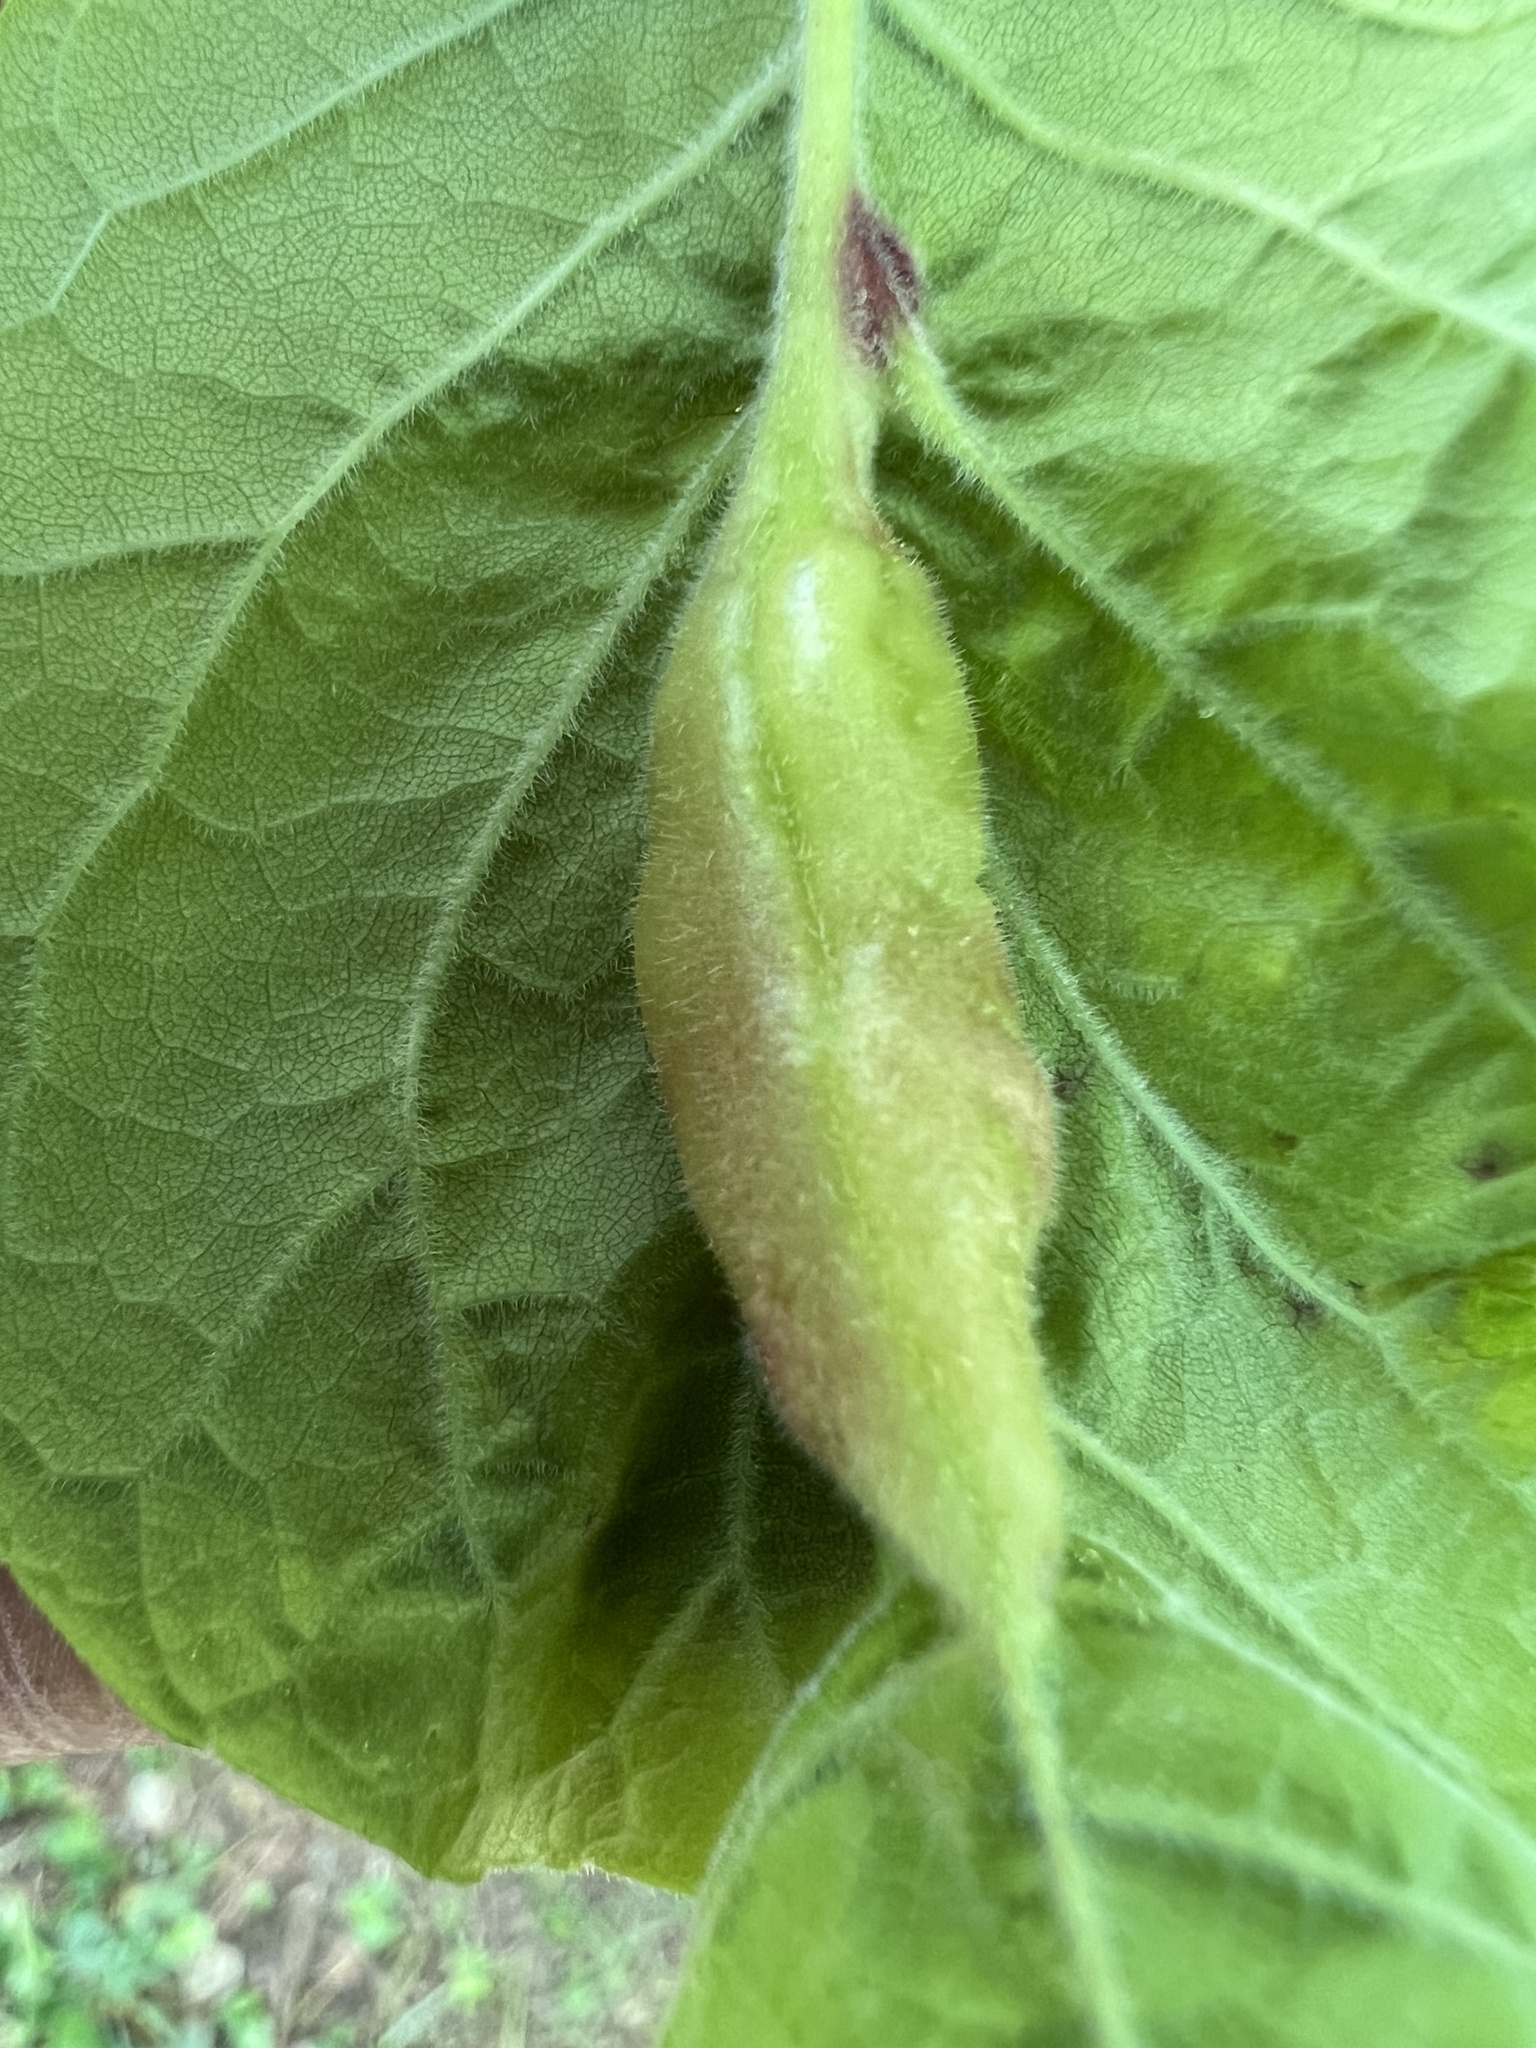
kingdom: Animalia
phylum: Arthropoda
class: Insecta
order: Diptera
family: Cecidomyiidae
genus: Dasineura
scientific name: Dasineura tumidosae
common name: Ash petiole gall midge
